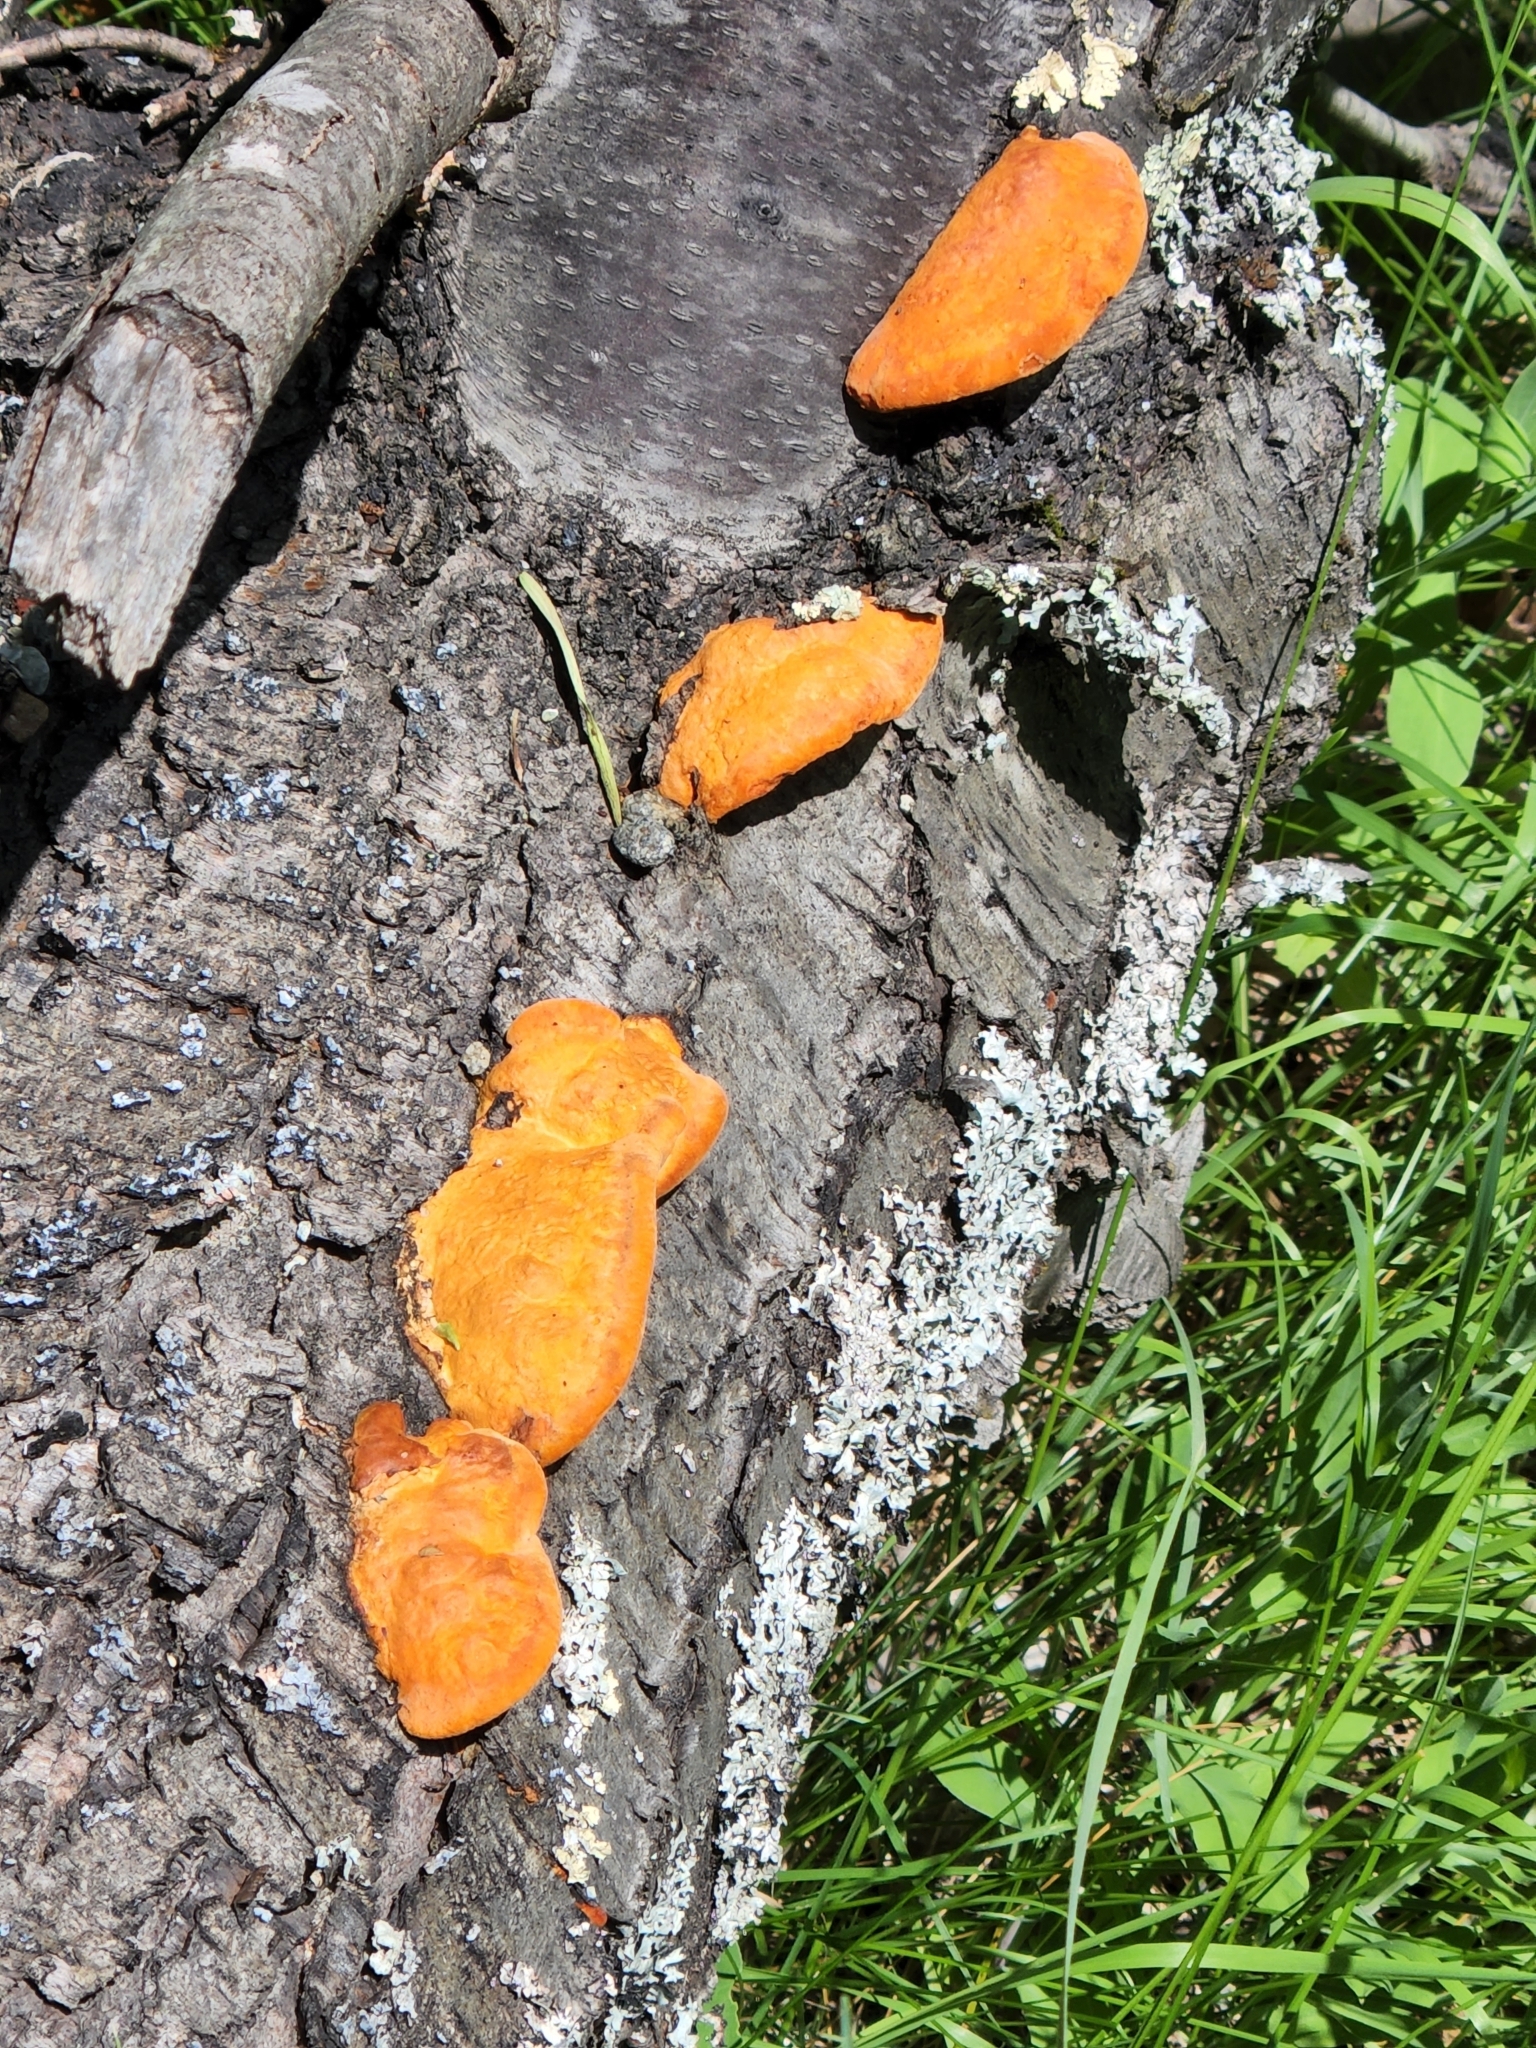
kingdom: Fungi
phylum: Basidiomycota
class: Agaricomycetes
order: Polyporales
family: Polyporaceae
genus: Trametes
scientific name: Trametes cinnabarina
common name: Northern cinnabar polypore
